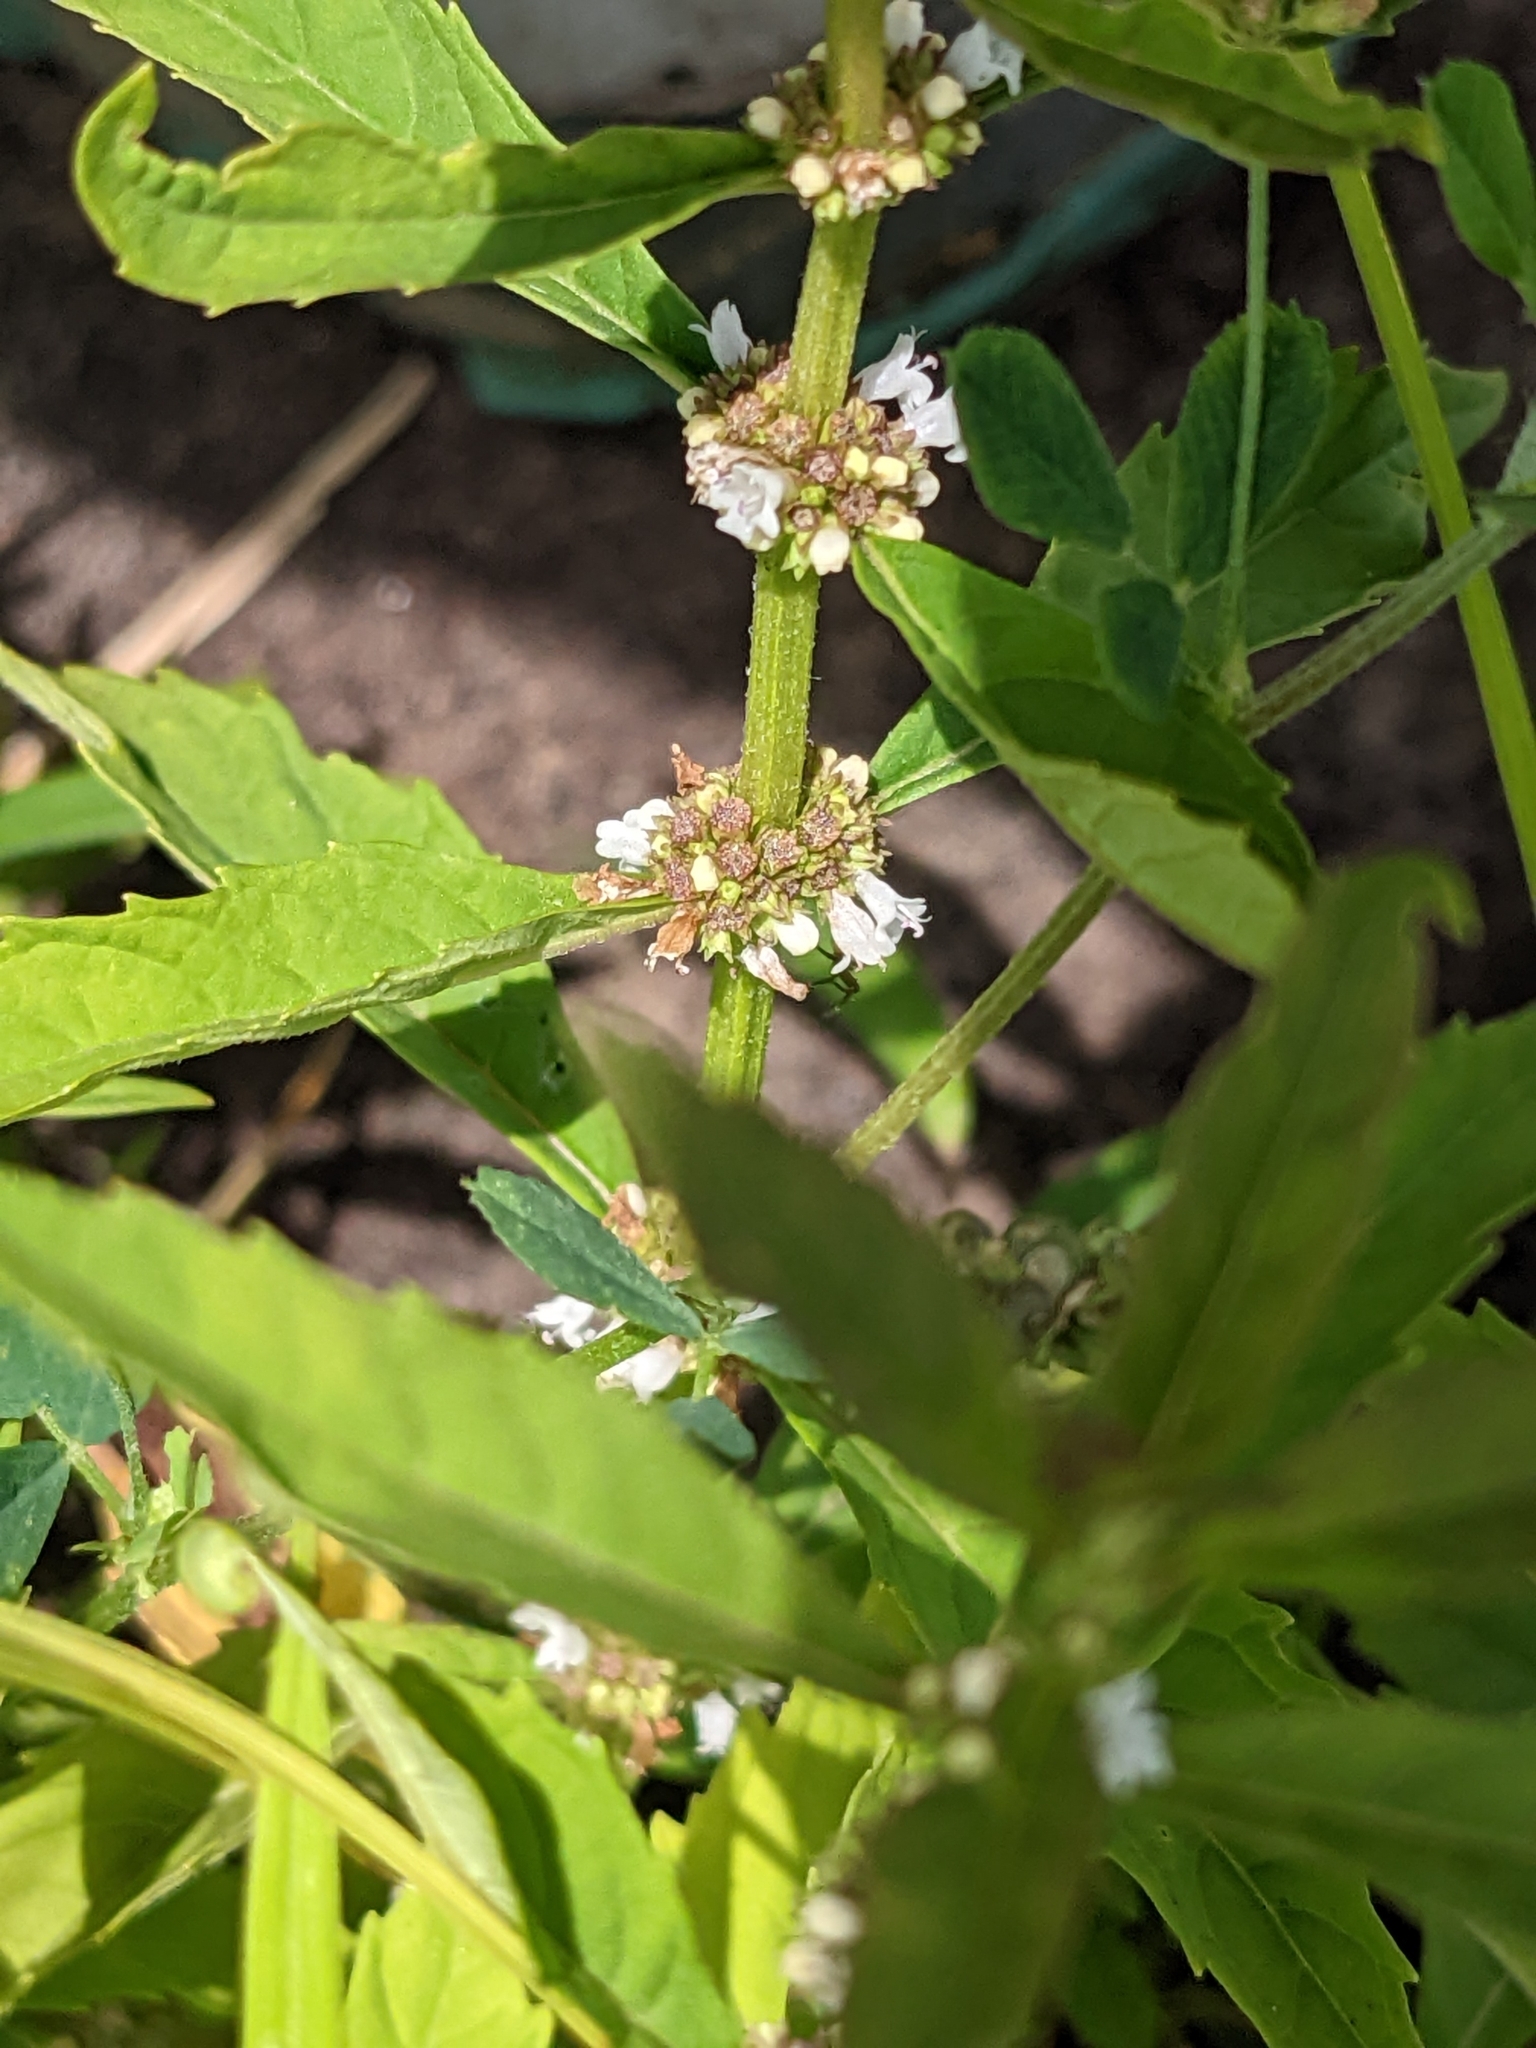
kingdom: Plantae
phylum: Tracheophyta
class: Magnoliopsida
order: Lamiales
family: Lamiaceae
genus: Lycopus
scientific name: Lycopus uniflorus
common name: Northern bugleweed
